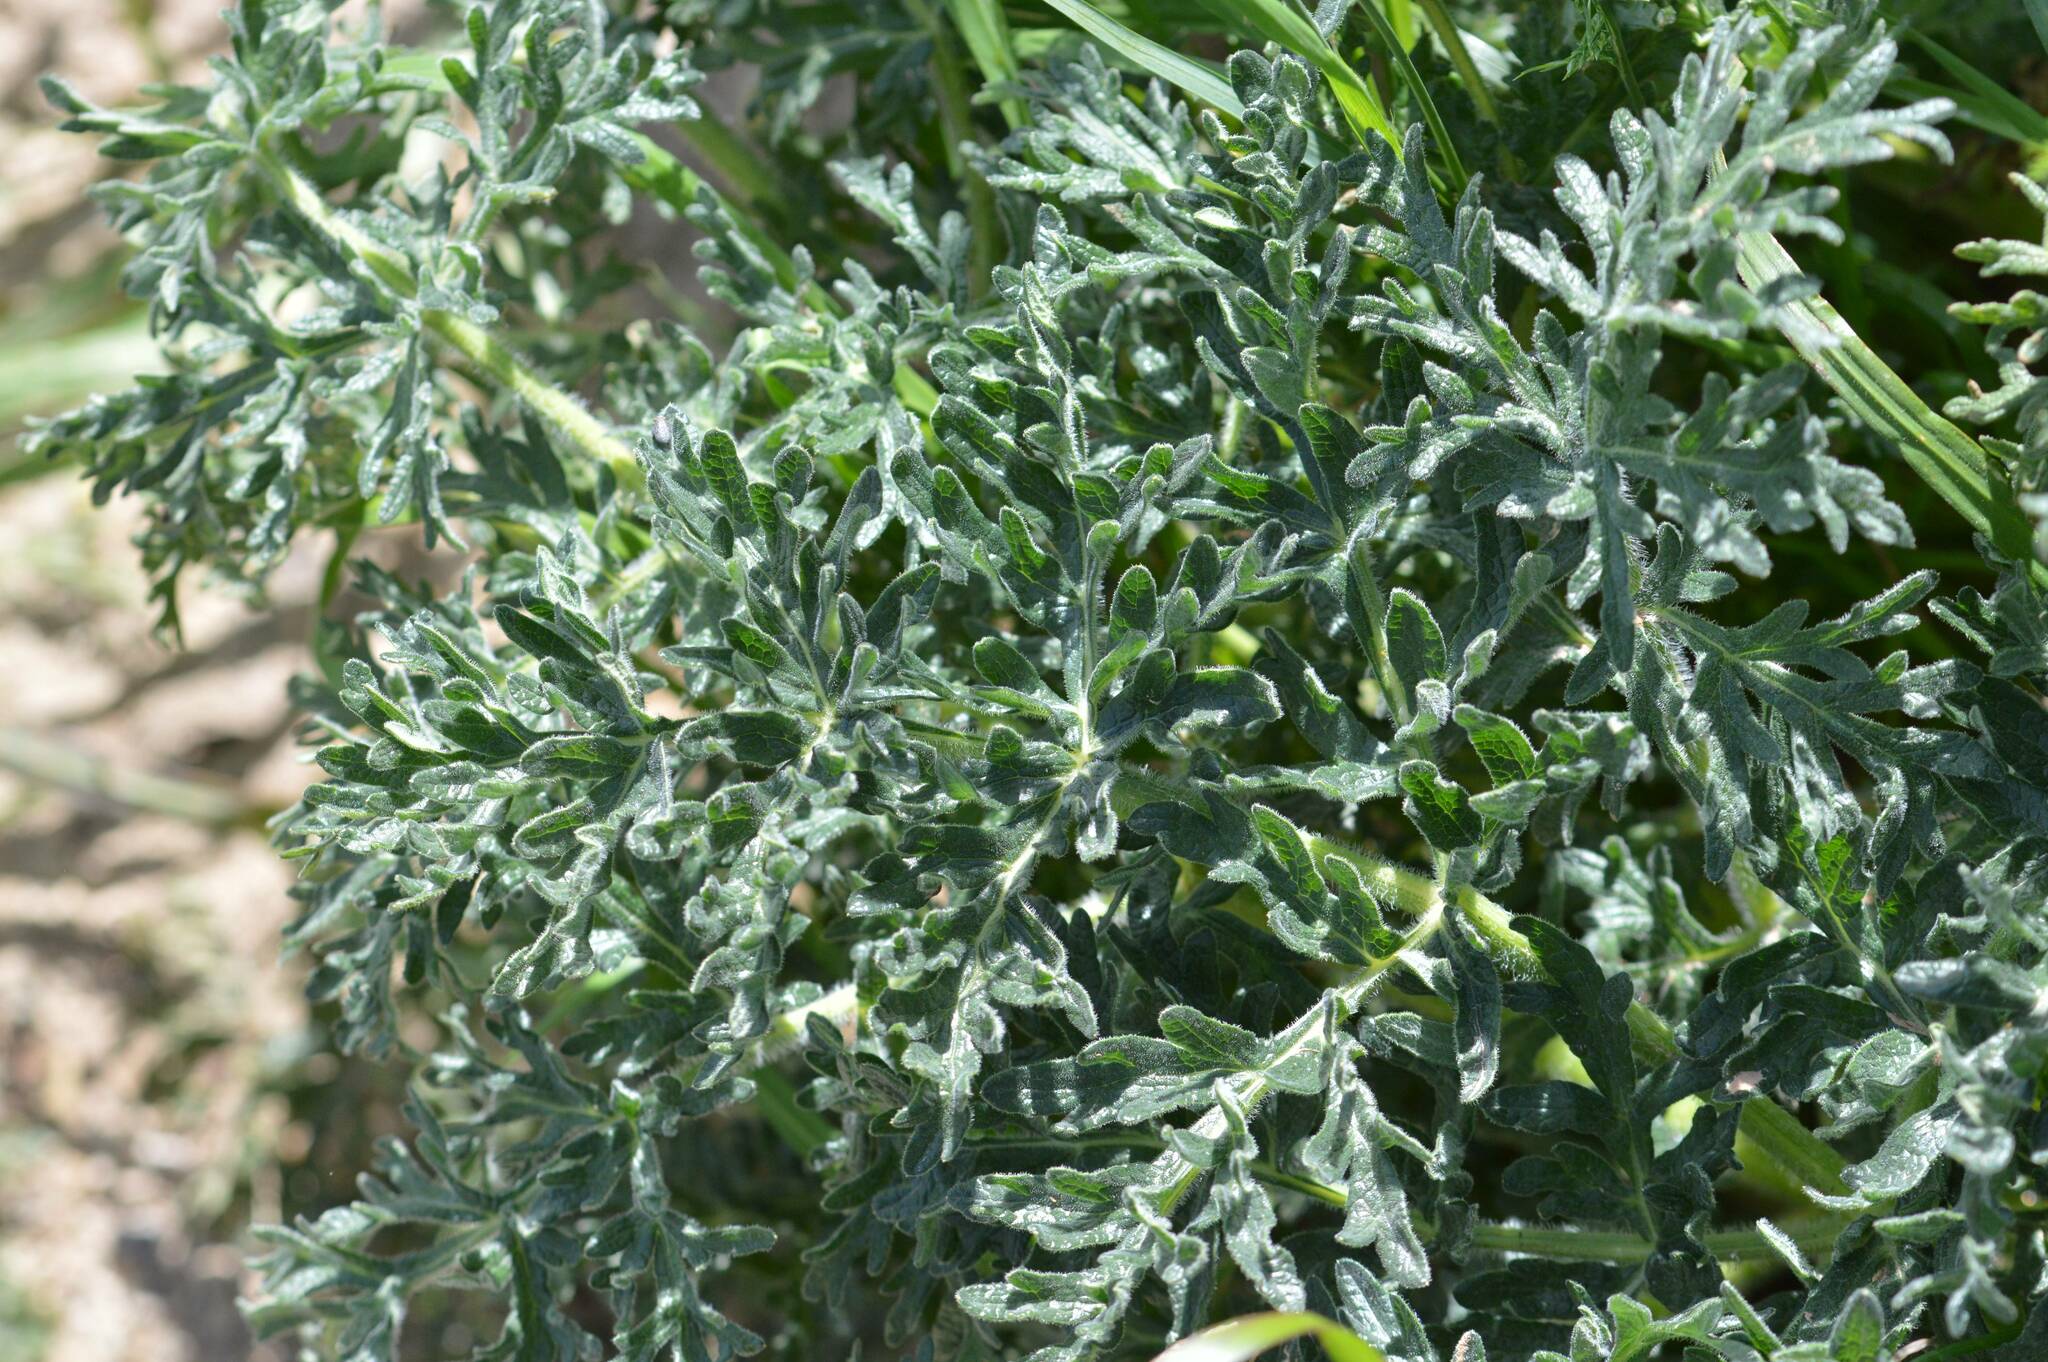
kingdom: Plantae
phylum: Tracheophyta
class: Magnoliopsida
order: Apiales
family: Apiaceae
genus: Thapsia
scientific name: Thapsia villosa
